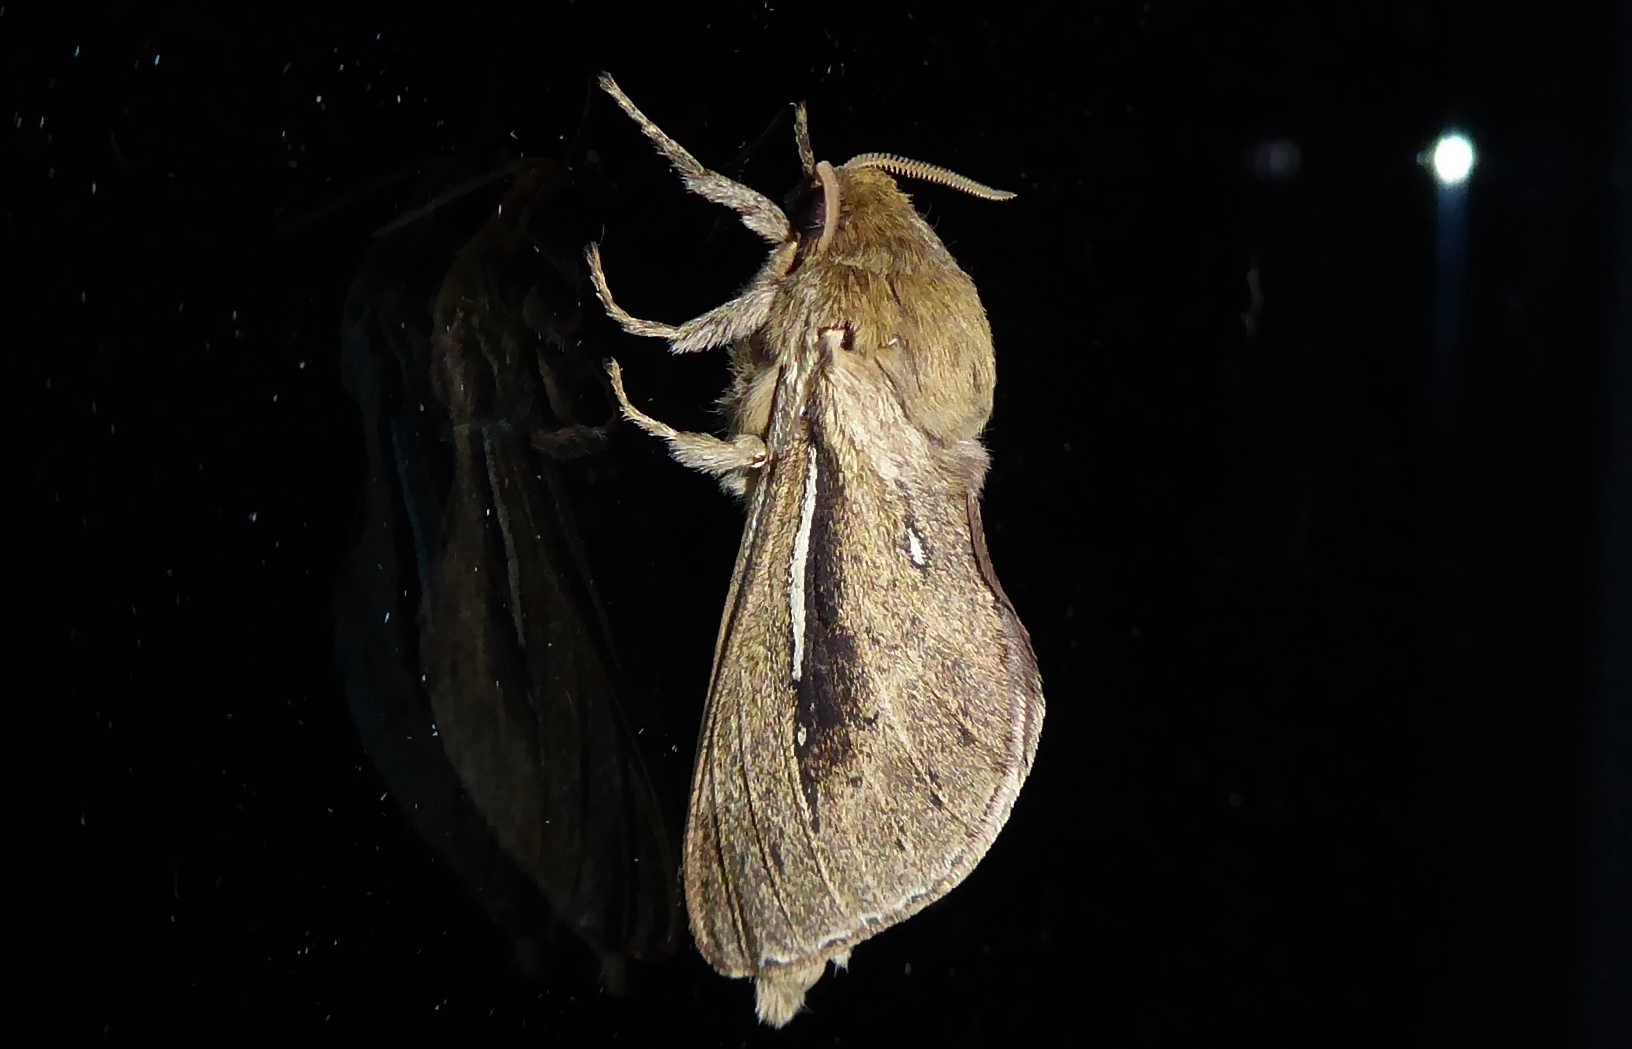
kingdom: Animalia
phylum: Arthropoda
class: Insecta
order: Lepidoptera
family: Hepialidae
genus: Wiseana
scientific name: Wiseana umbraculatus
